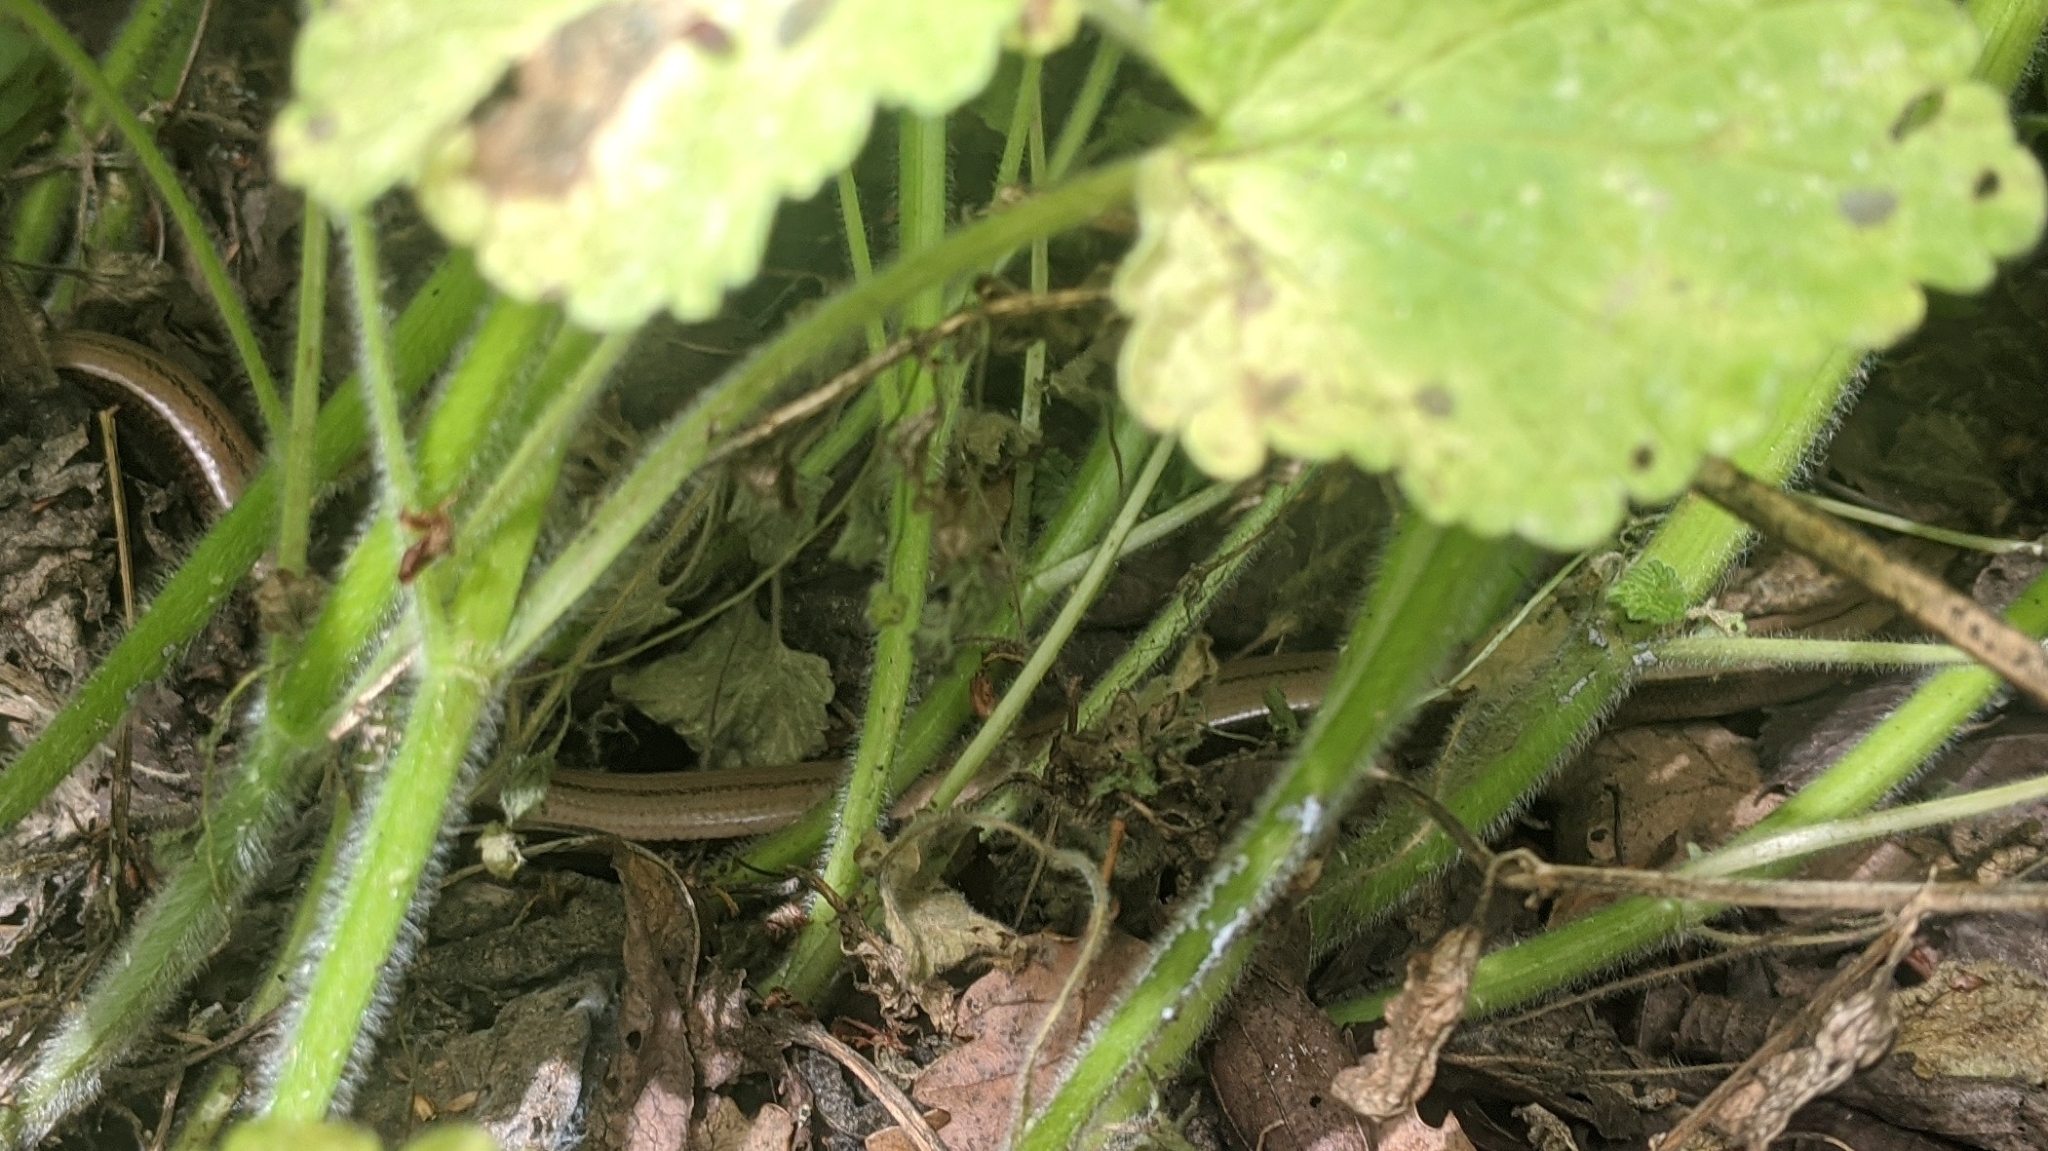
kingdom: Animalia
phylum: Chordata
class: Squamata
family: Anguidae
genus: Anguis
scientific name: Anguis fragilis
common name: Slow worm
